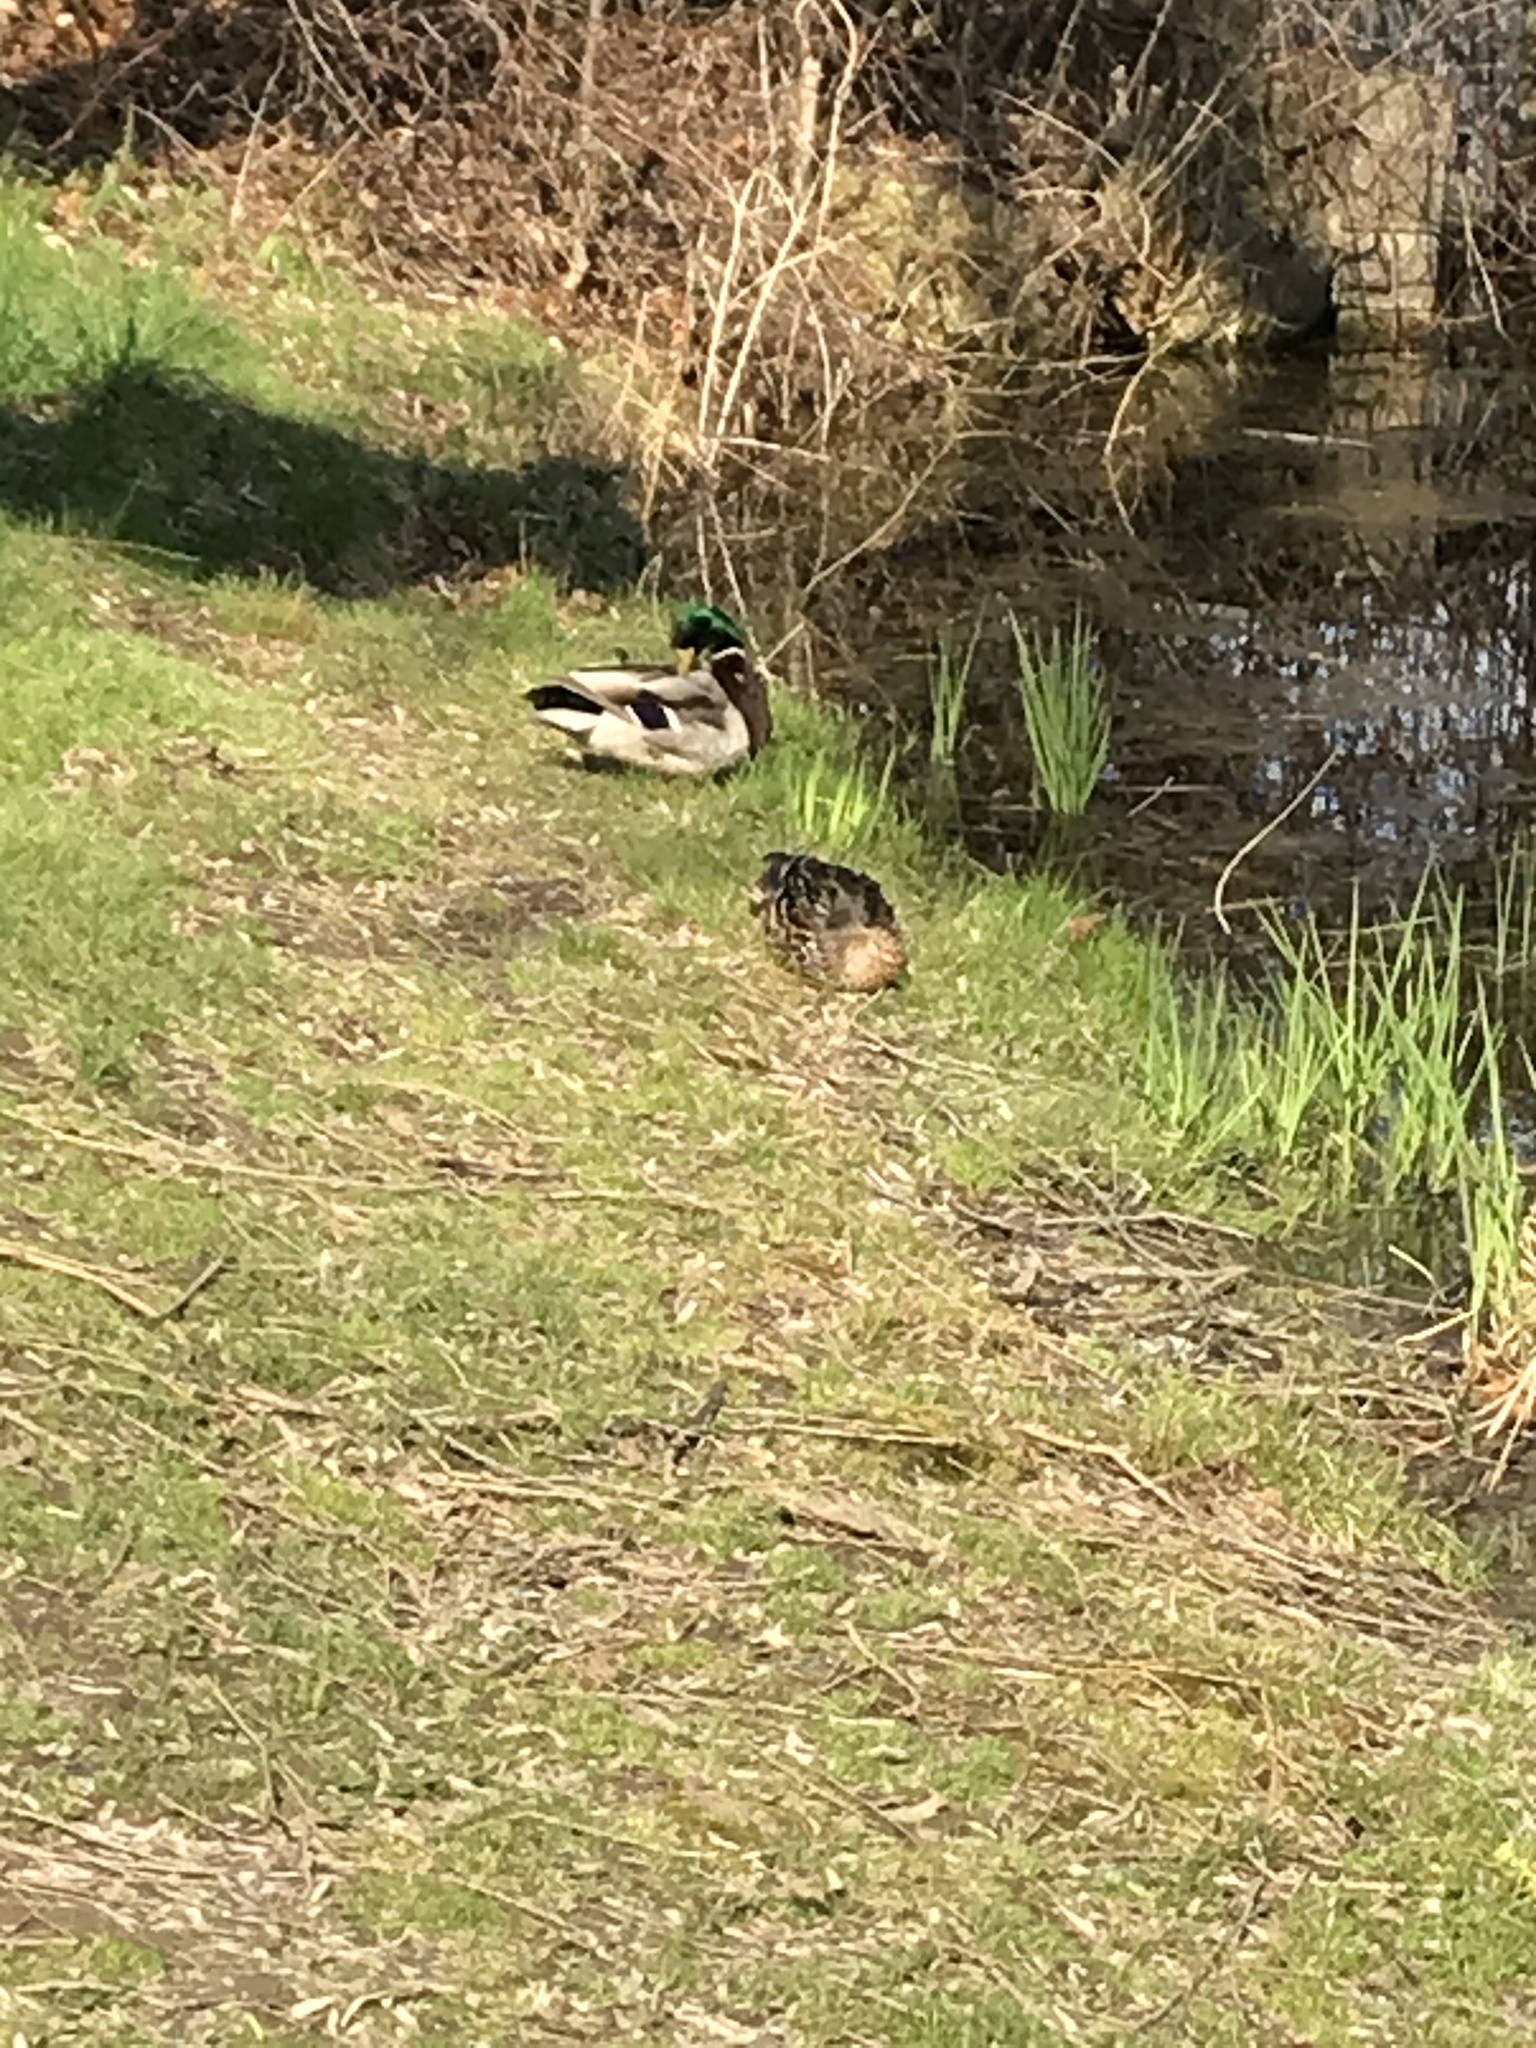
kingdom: Animalia
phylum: Chordata
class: Aves
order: Anseriformes
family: Anatidae
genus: Anas
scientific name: Anas platyrhynchos
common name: Mallard
